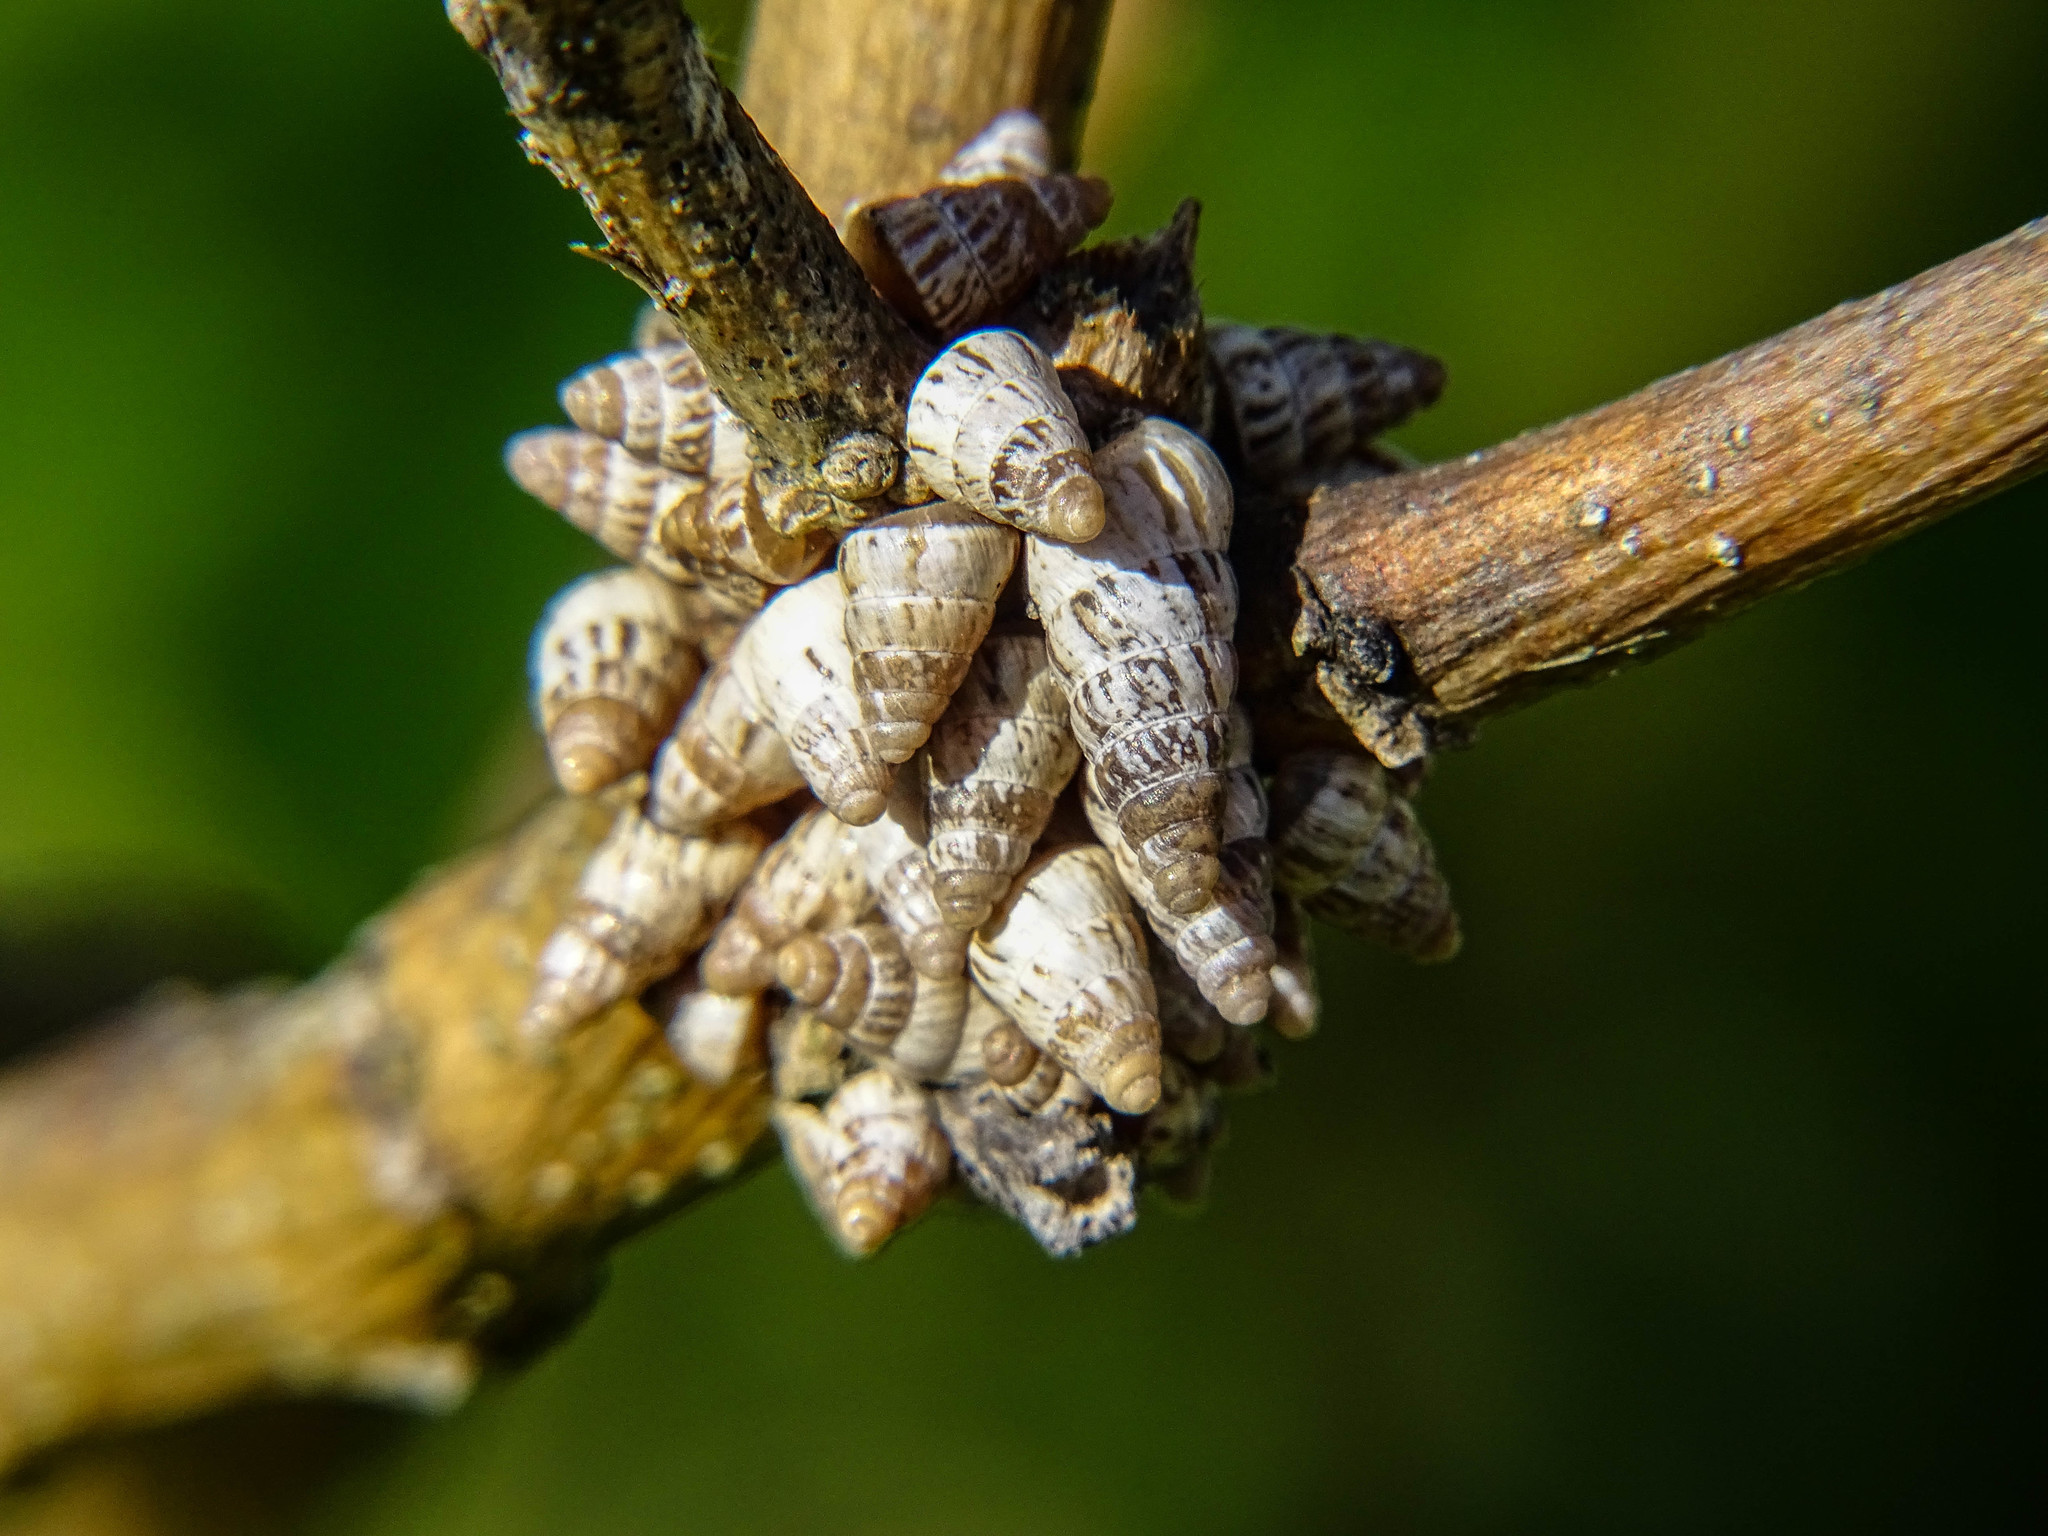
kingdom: Animalia
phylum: Mollusca
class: Gastropoda
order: Stylommatophora
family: Geomitridae
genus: Cochlicella
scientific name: Cochlicella barbara
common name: Potbellied helicellid
